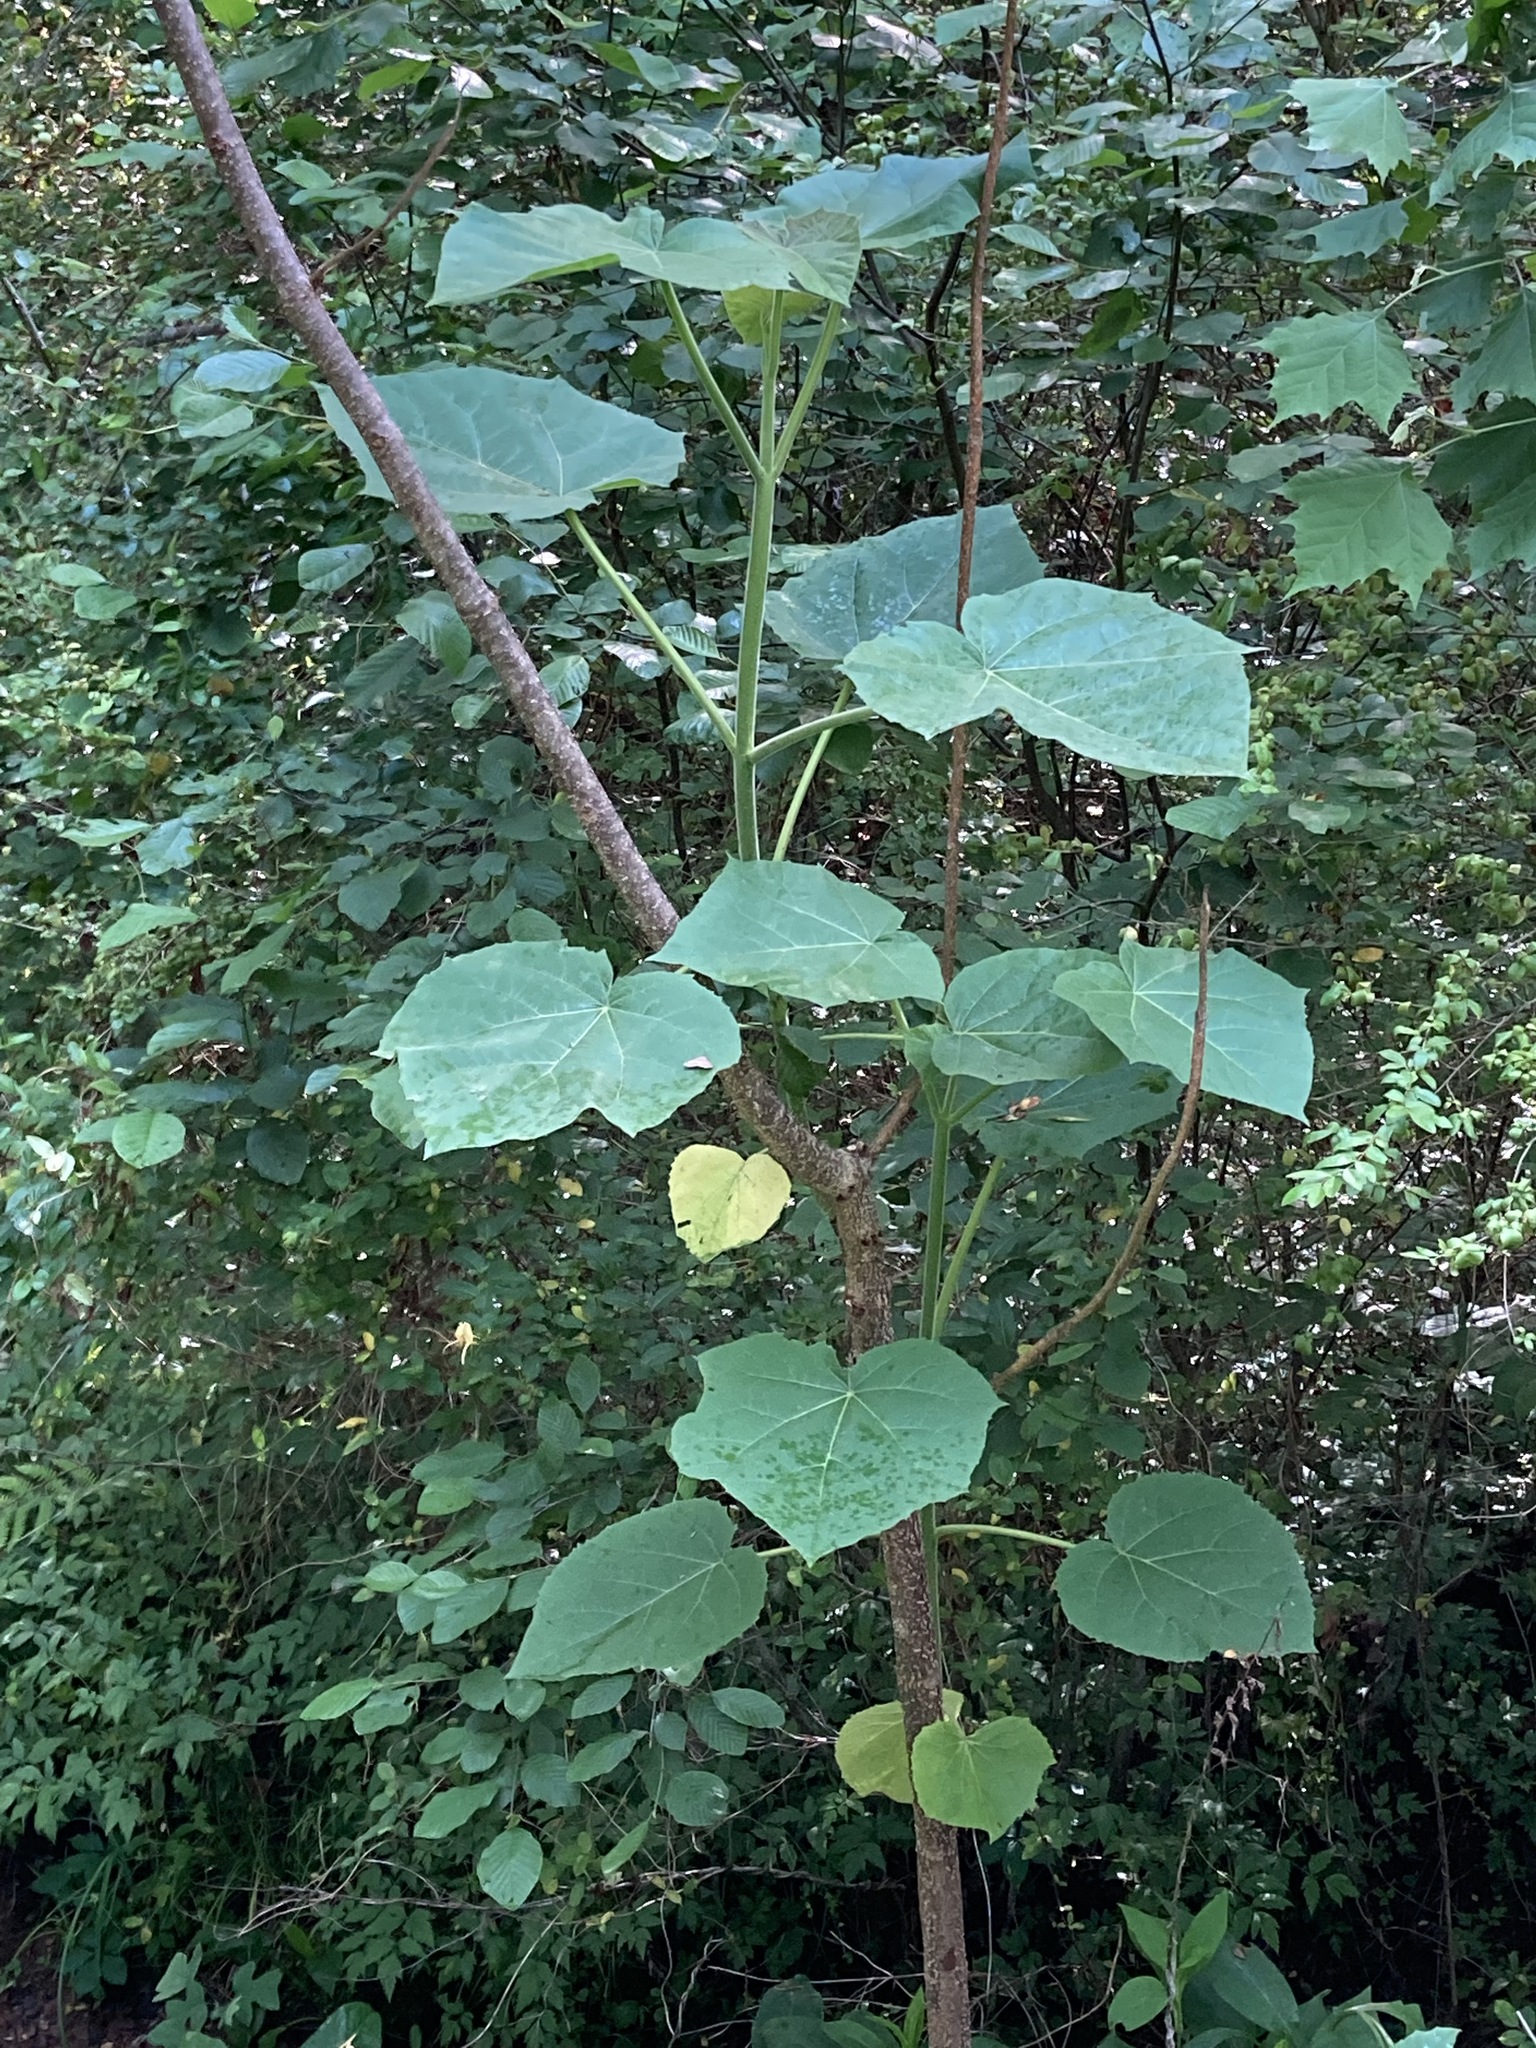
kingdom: Plantae
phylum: Tracheophyta
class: Magnoliopsida
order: Lamiales
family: Paulowniaceae
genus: Paulownia
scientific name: Paulownia tomentosa
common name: Foxglove-tree
